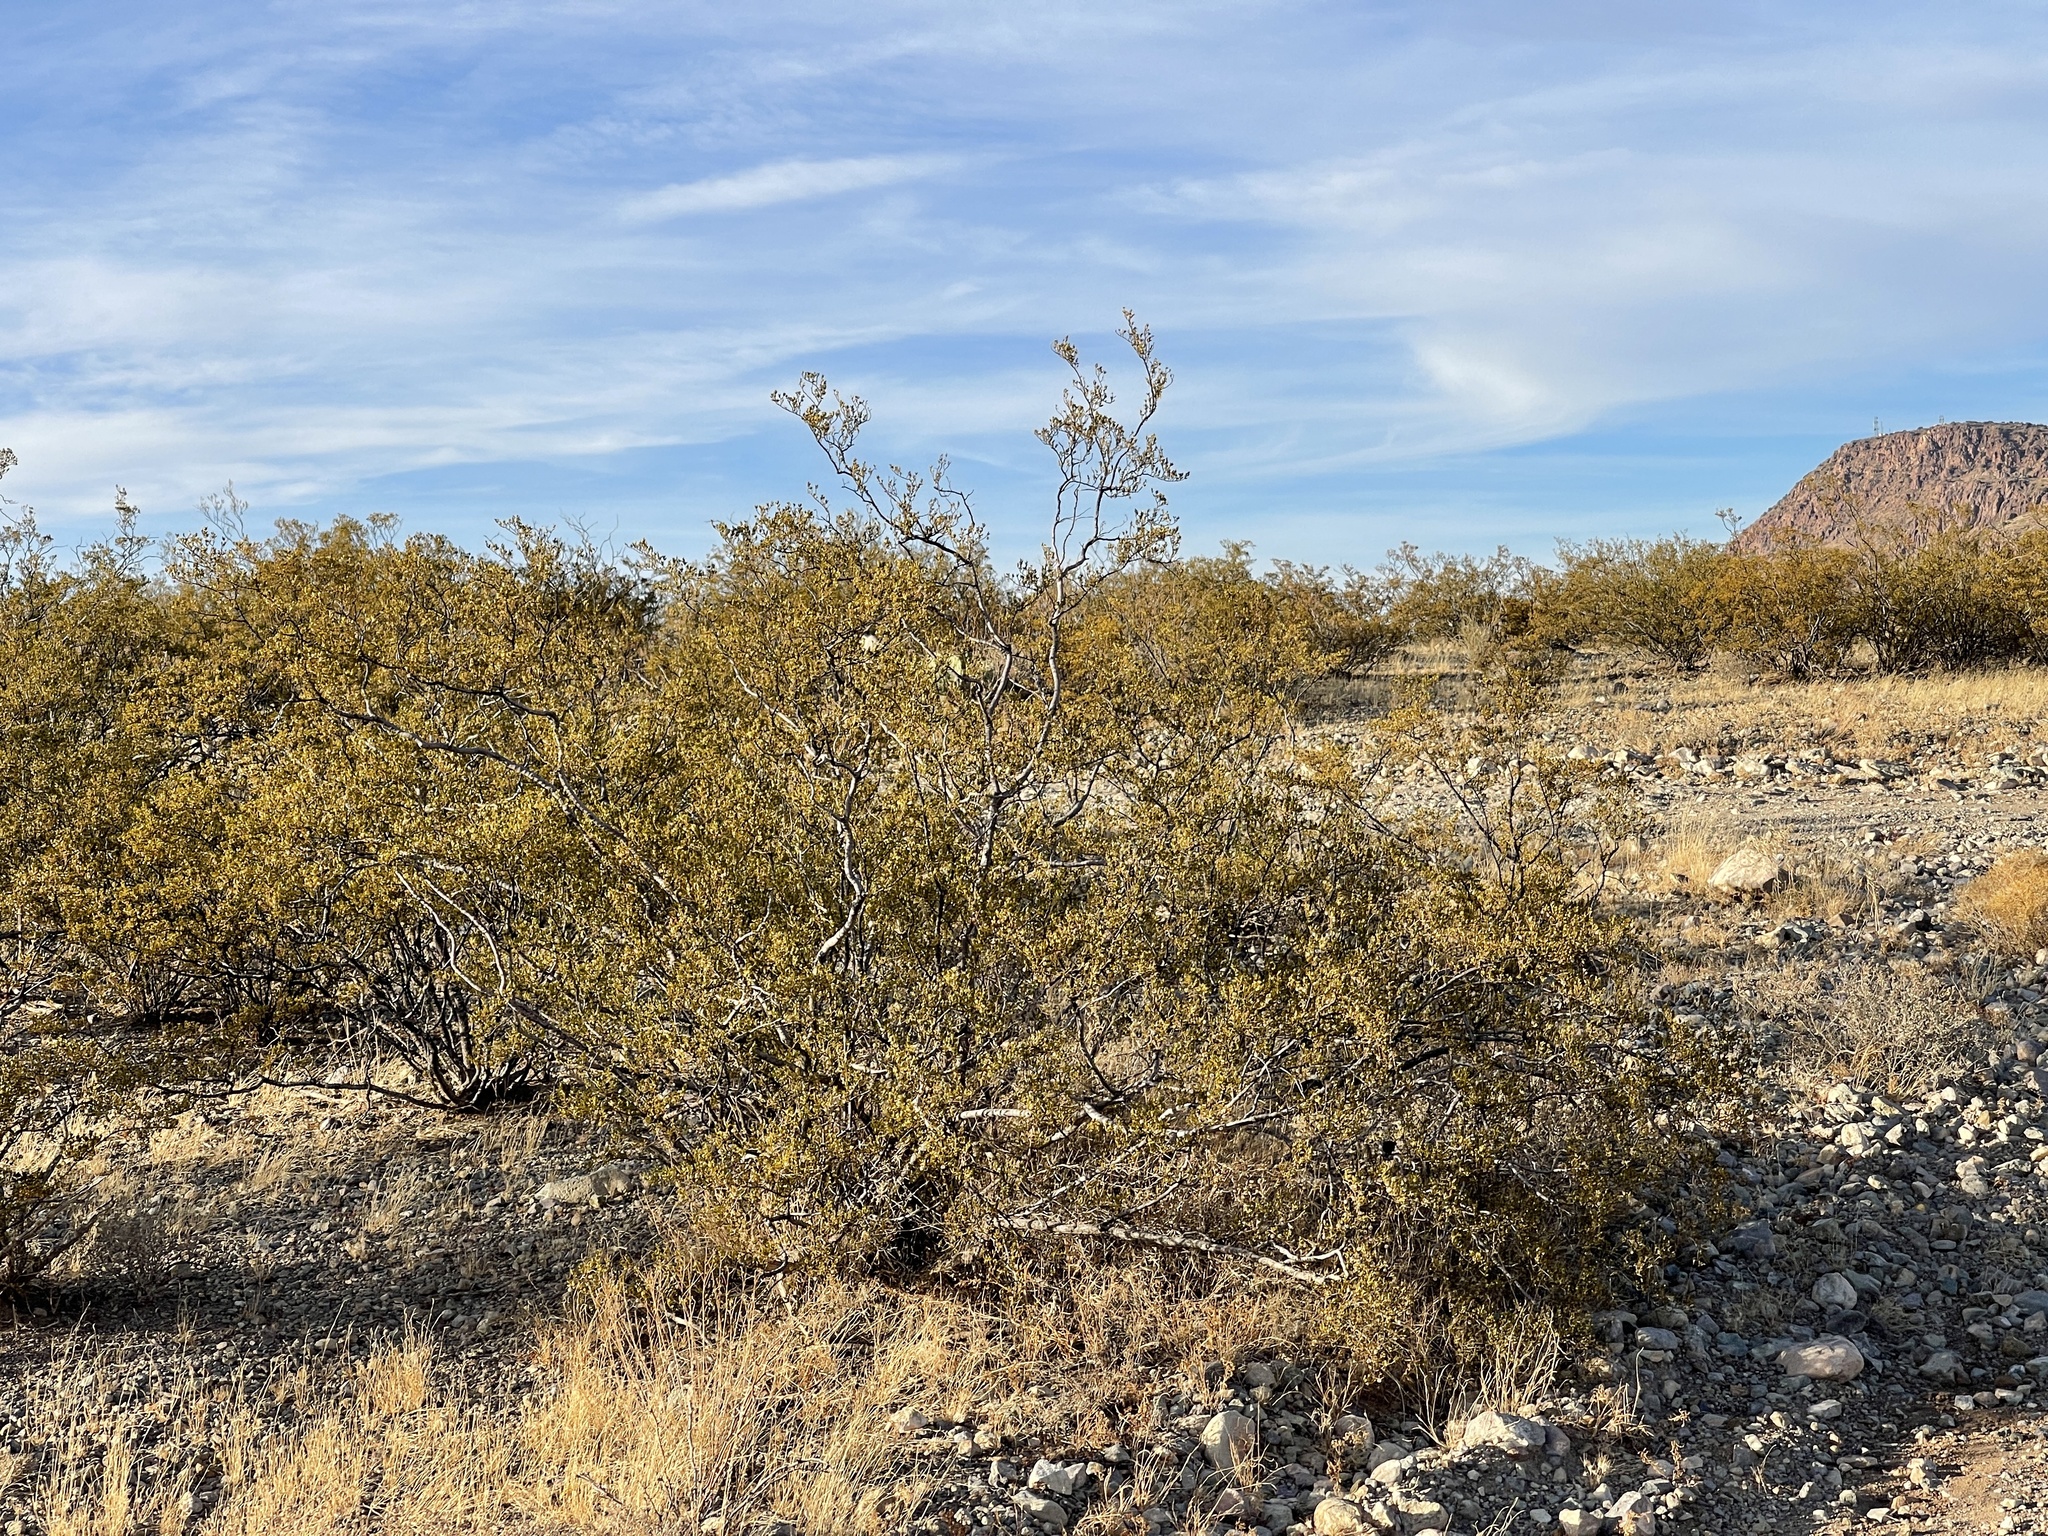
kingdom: Plantae
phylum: Tracheophyta
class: Magnoliopsida
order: Zygophyllales
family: Zygophyllaceae
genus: Larrea
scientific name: Larrea tridentata
